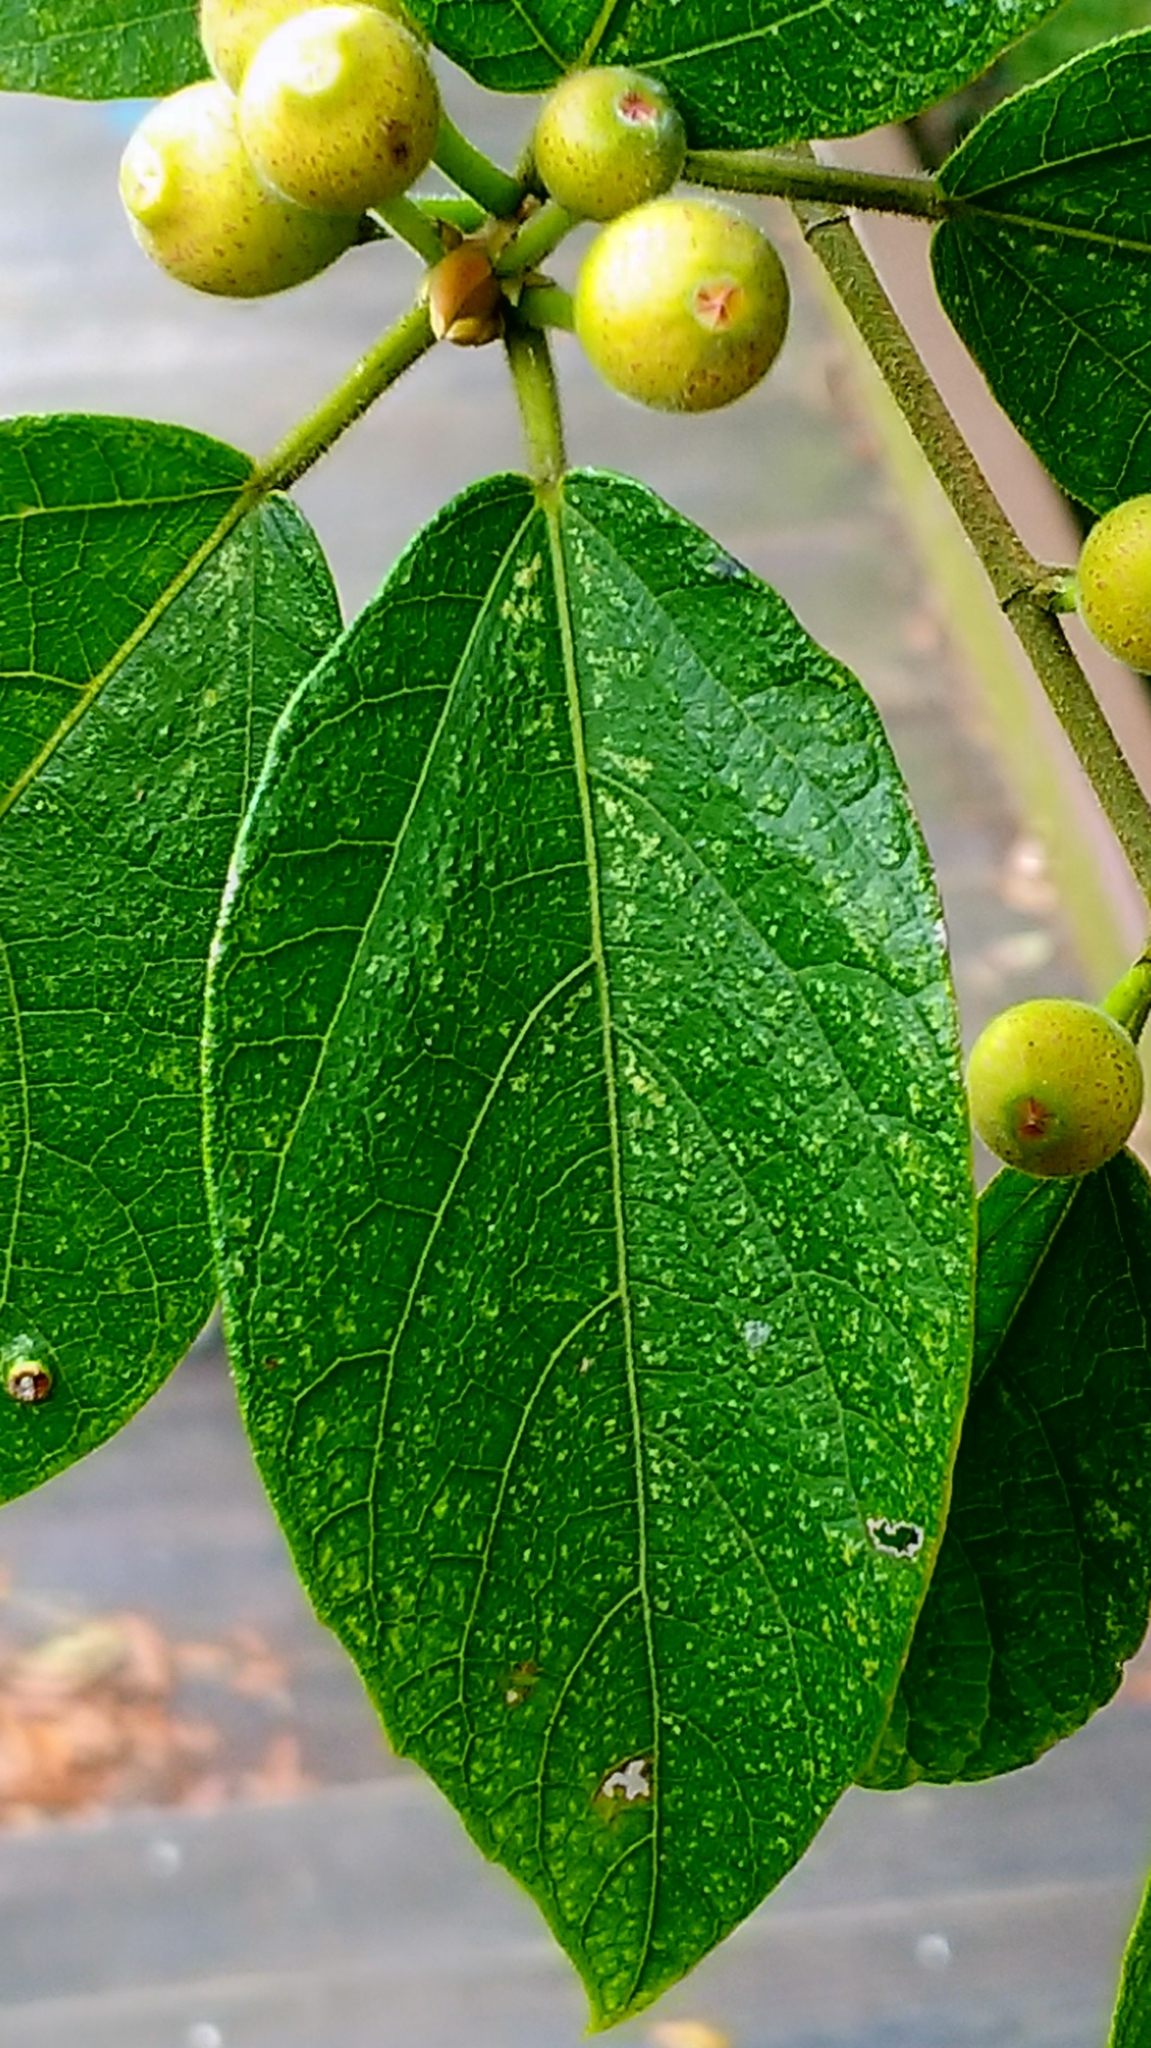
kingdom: Plantae
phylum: Tracheophyta
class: Magnoliopsida
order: Rosales
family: Moraceae
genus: Ficus
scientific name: Ficus erecta
